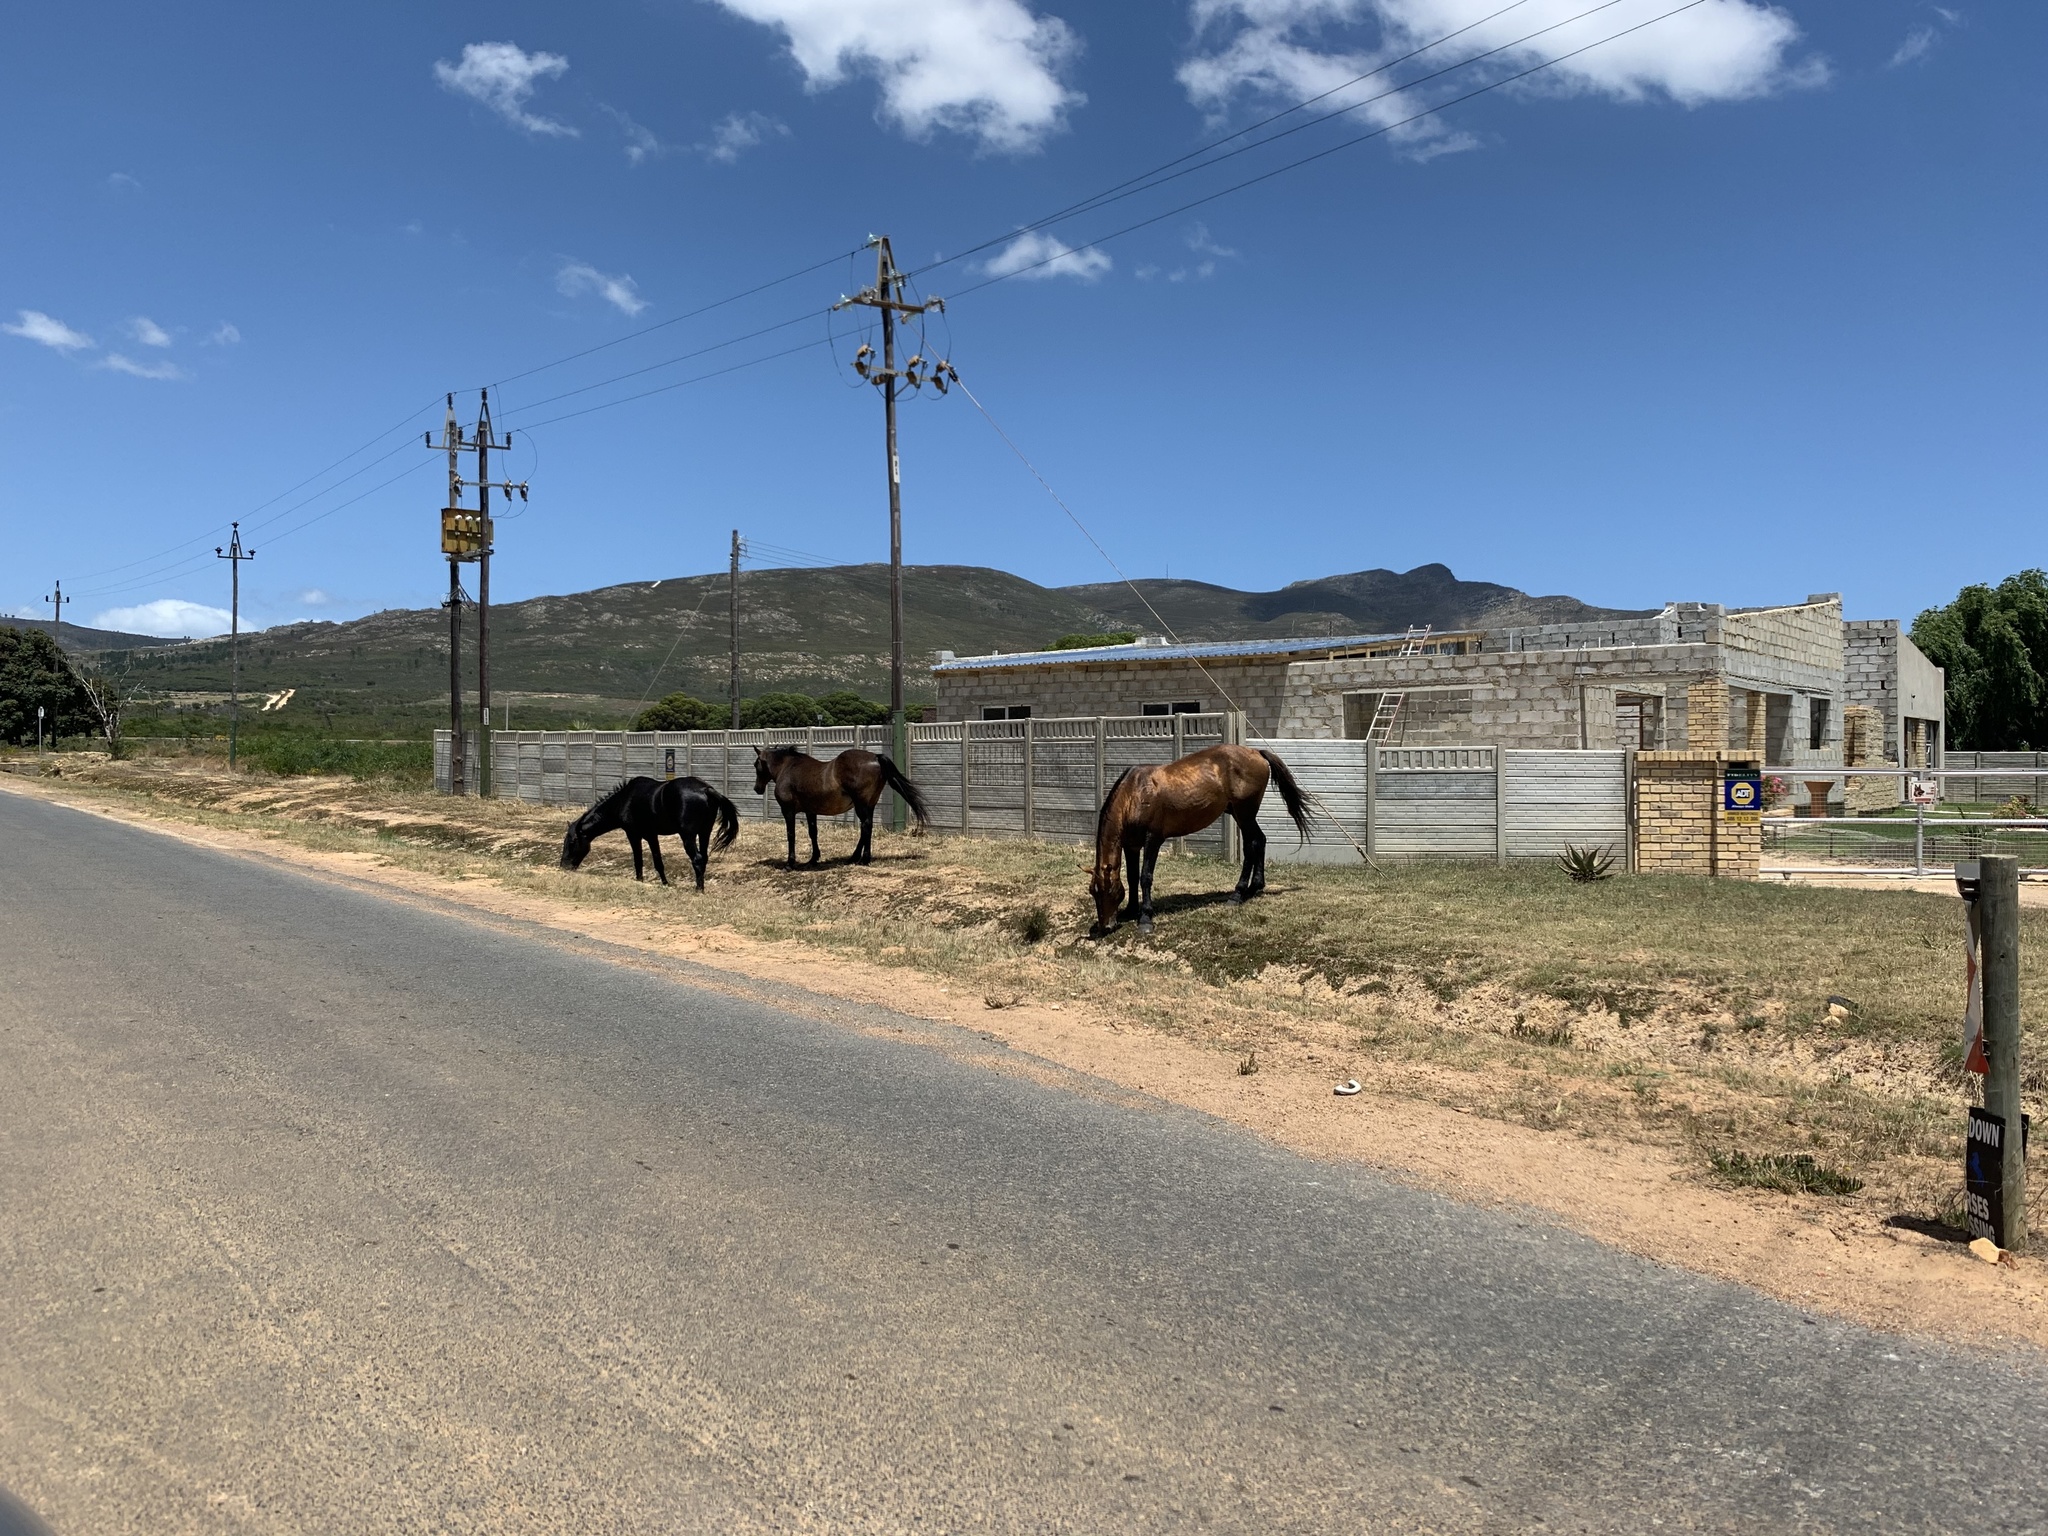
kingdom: Animalia
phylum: Chordata
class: Mammalia
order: Perissodactyla
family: Equidae
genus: Equus
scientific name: Equus caballus
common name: Horse
